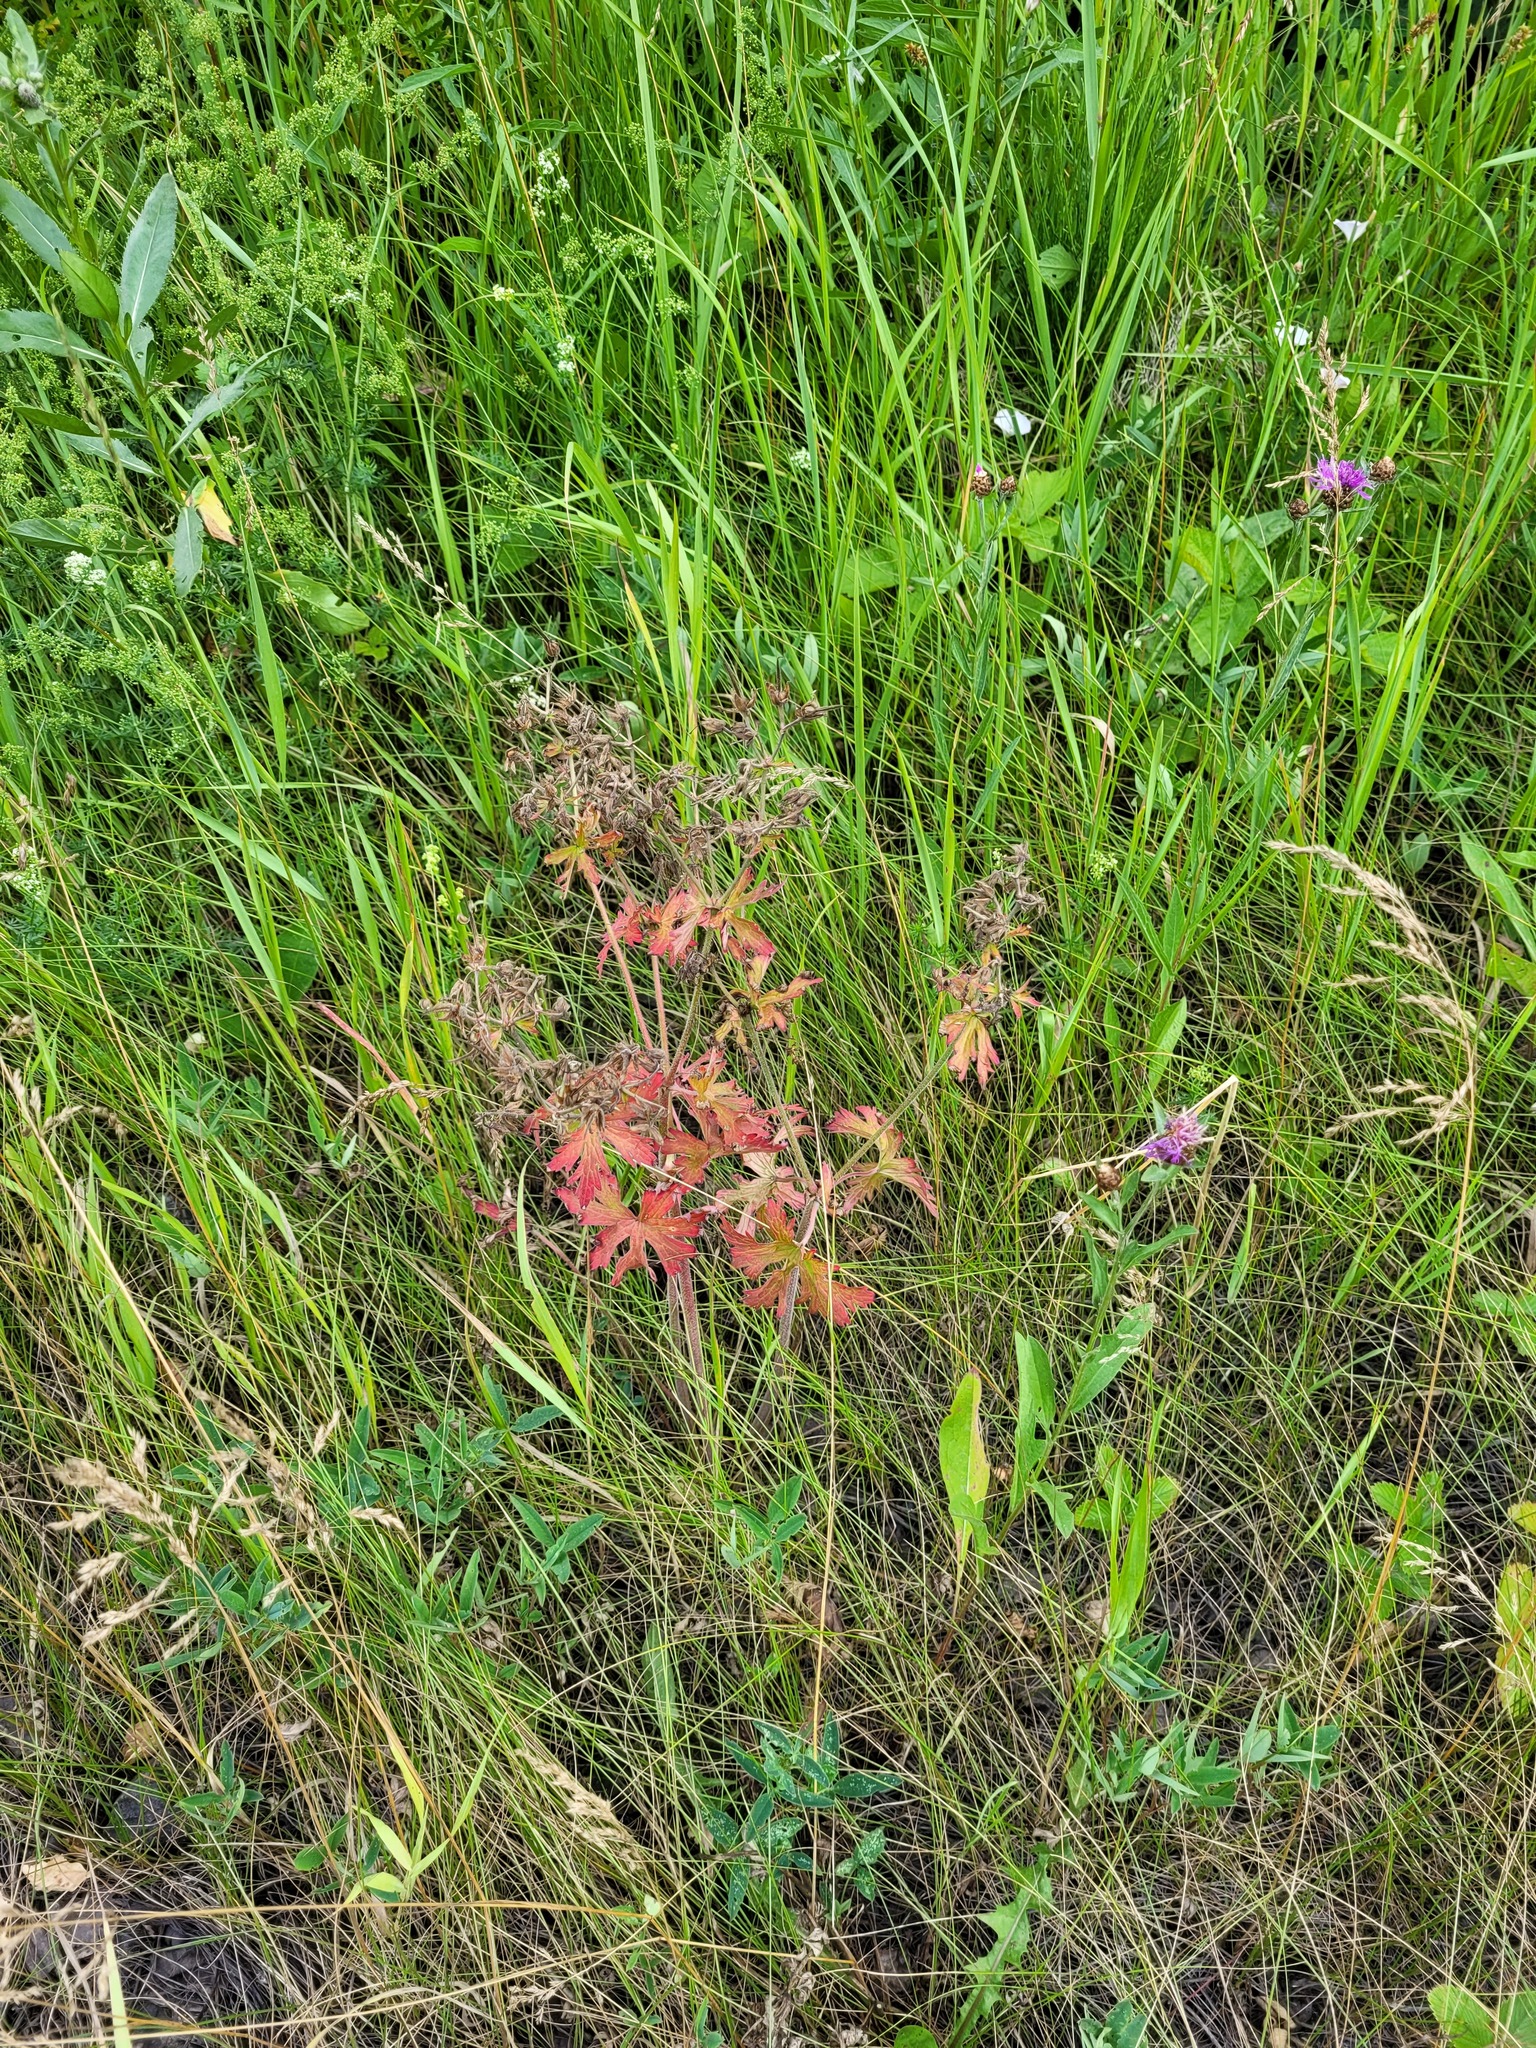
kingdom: Plantae
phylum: Tracheophyta
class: Magnoliopsida
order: Geraniales
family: Geraniaceae
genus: Geranium
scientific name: Geranium sylvaticum
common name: Wood crane's-bill
